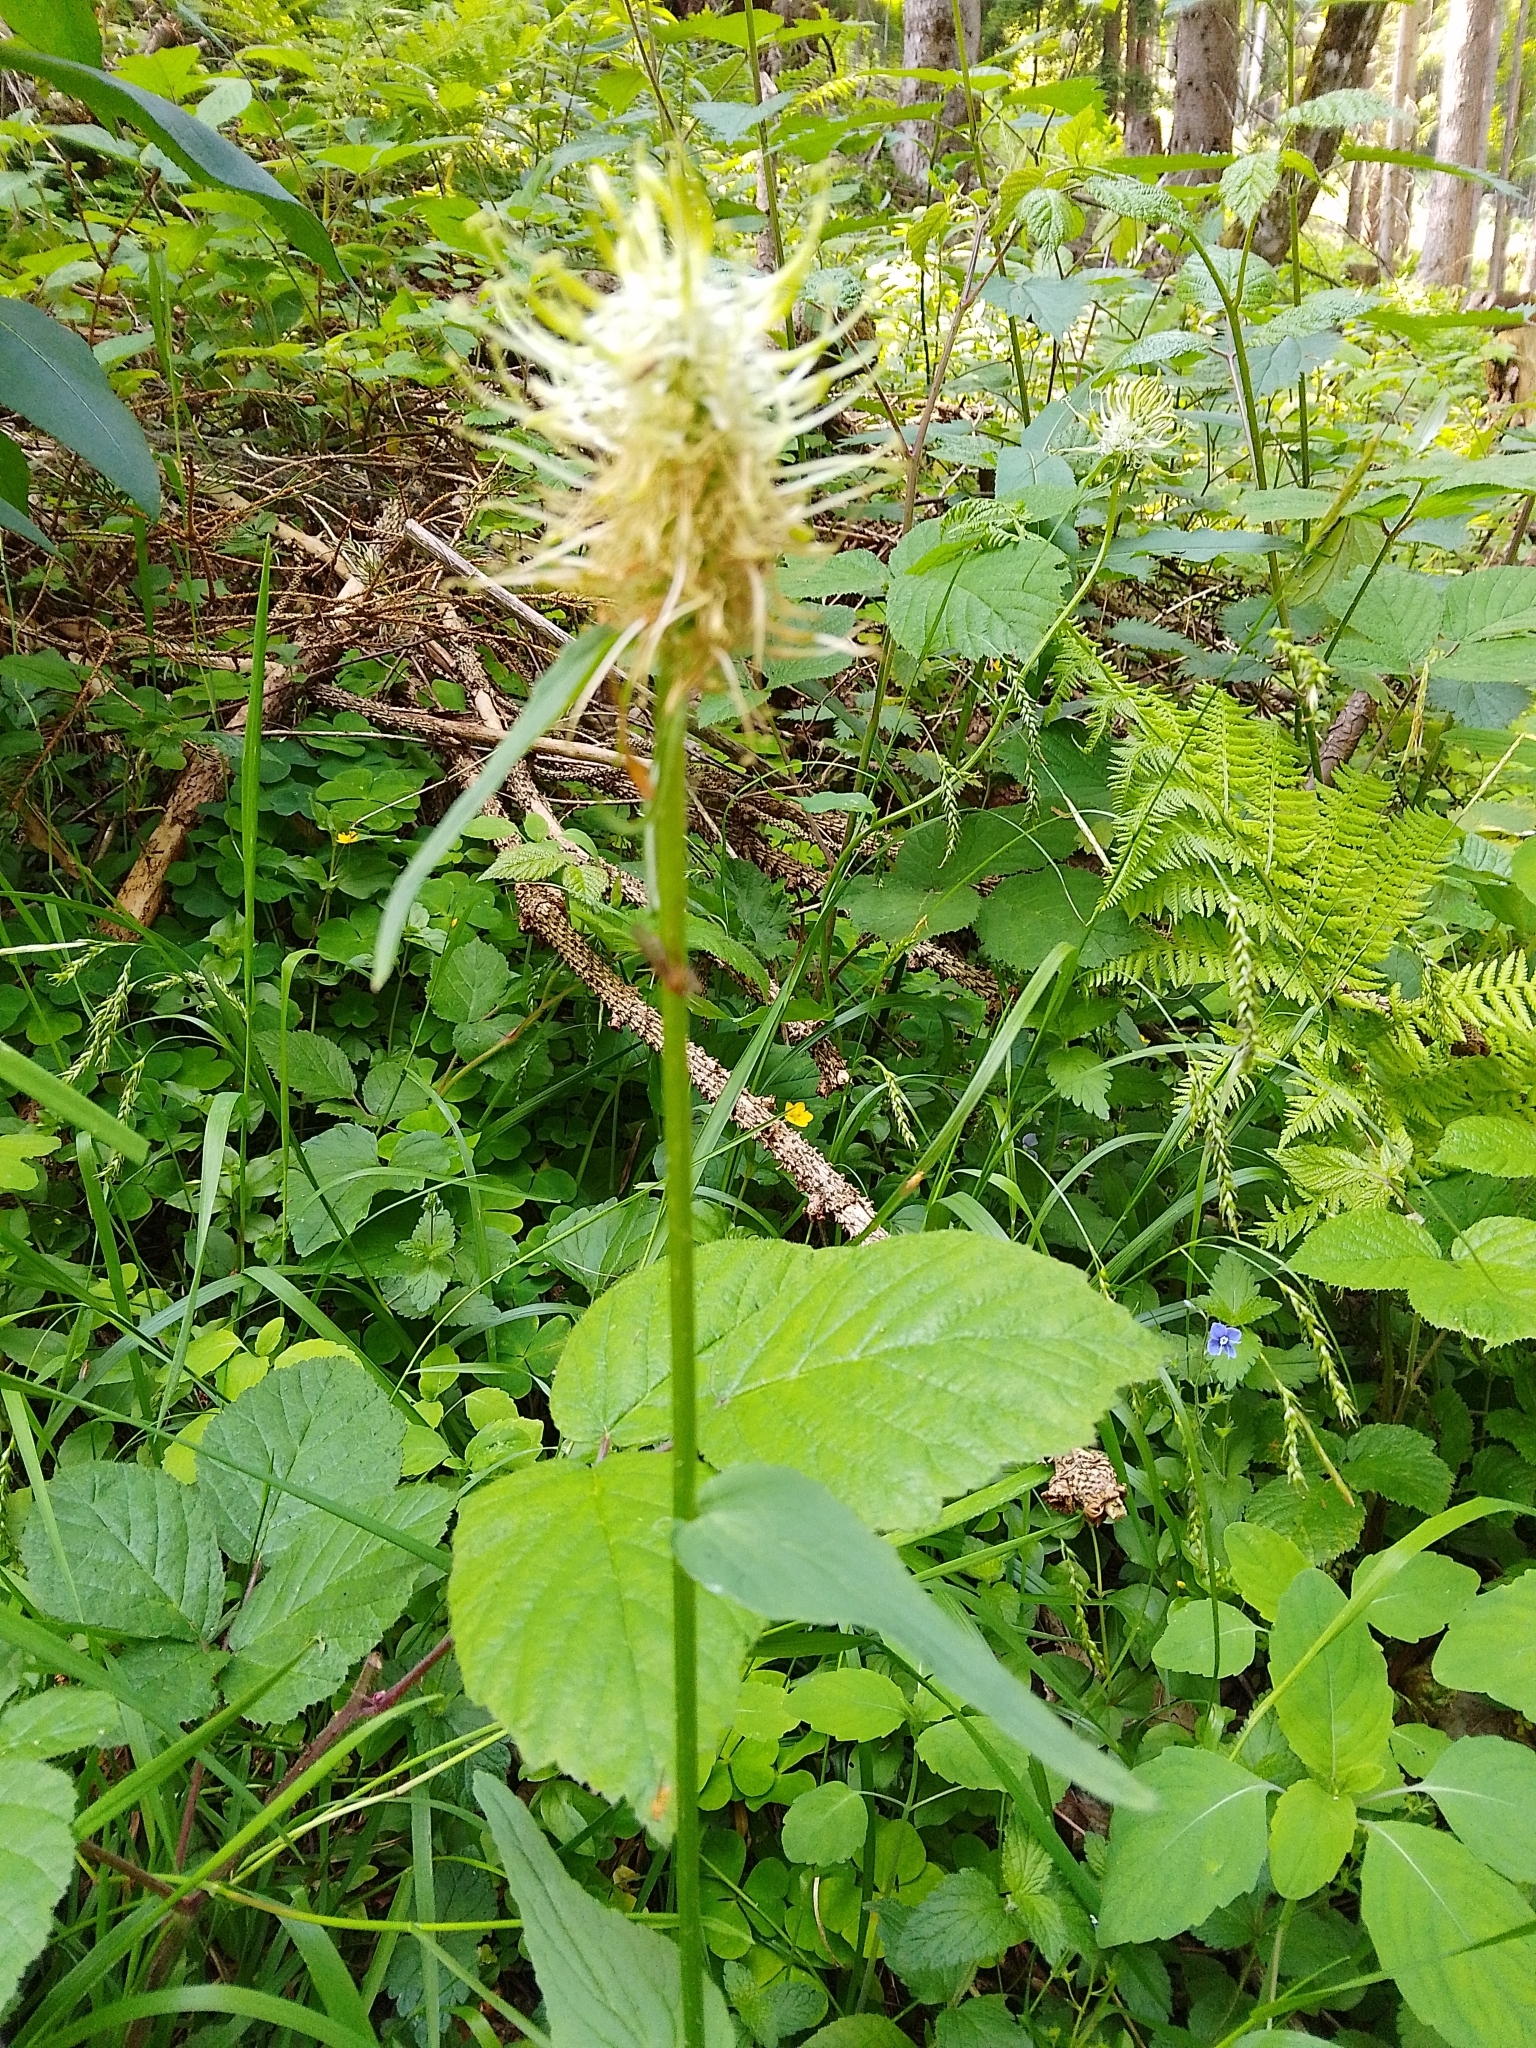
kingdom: Plantae
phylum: Tracheophyta
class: Magnoliopsida
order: Asterales
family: Campanulaceae
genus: Phyteuma
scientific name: Phyteuma spicatum
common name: Spiked rampion
